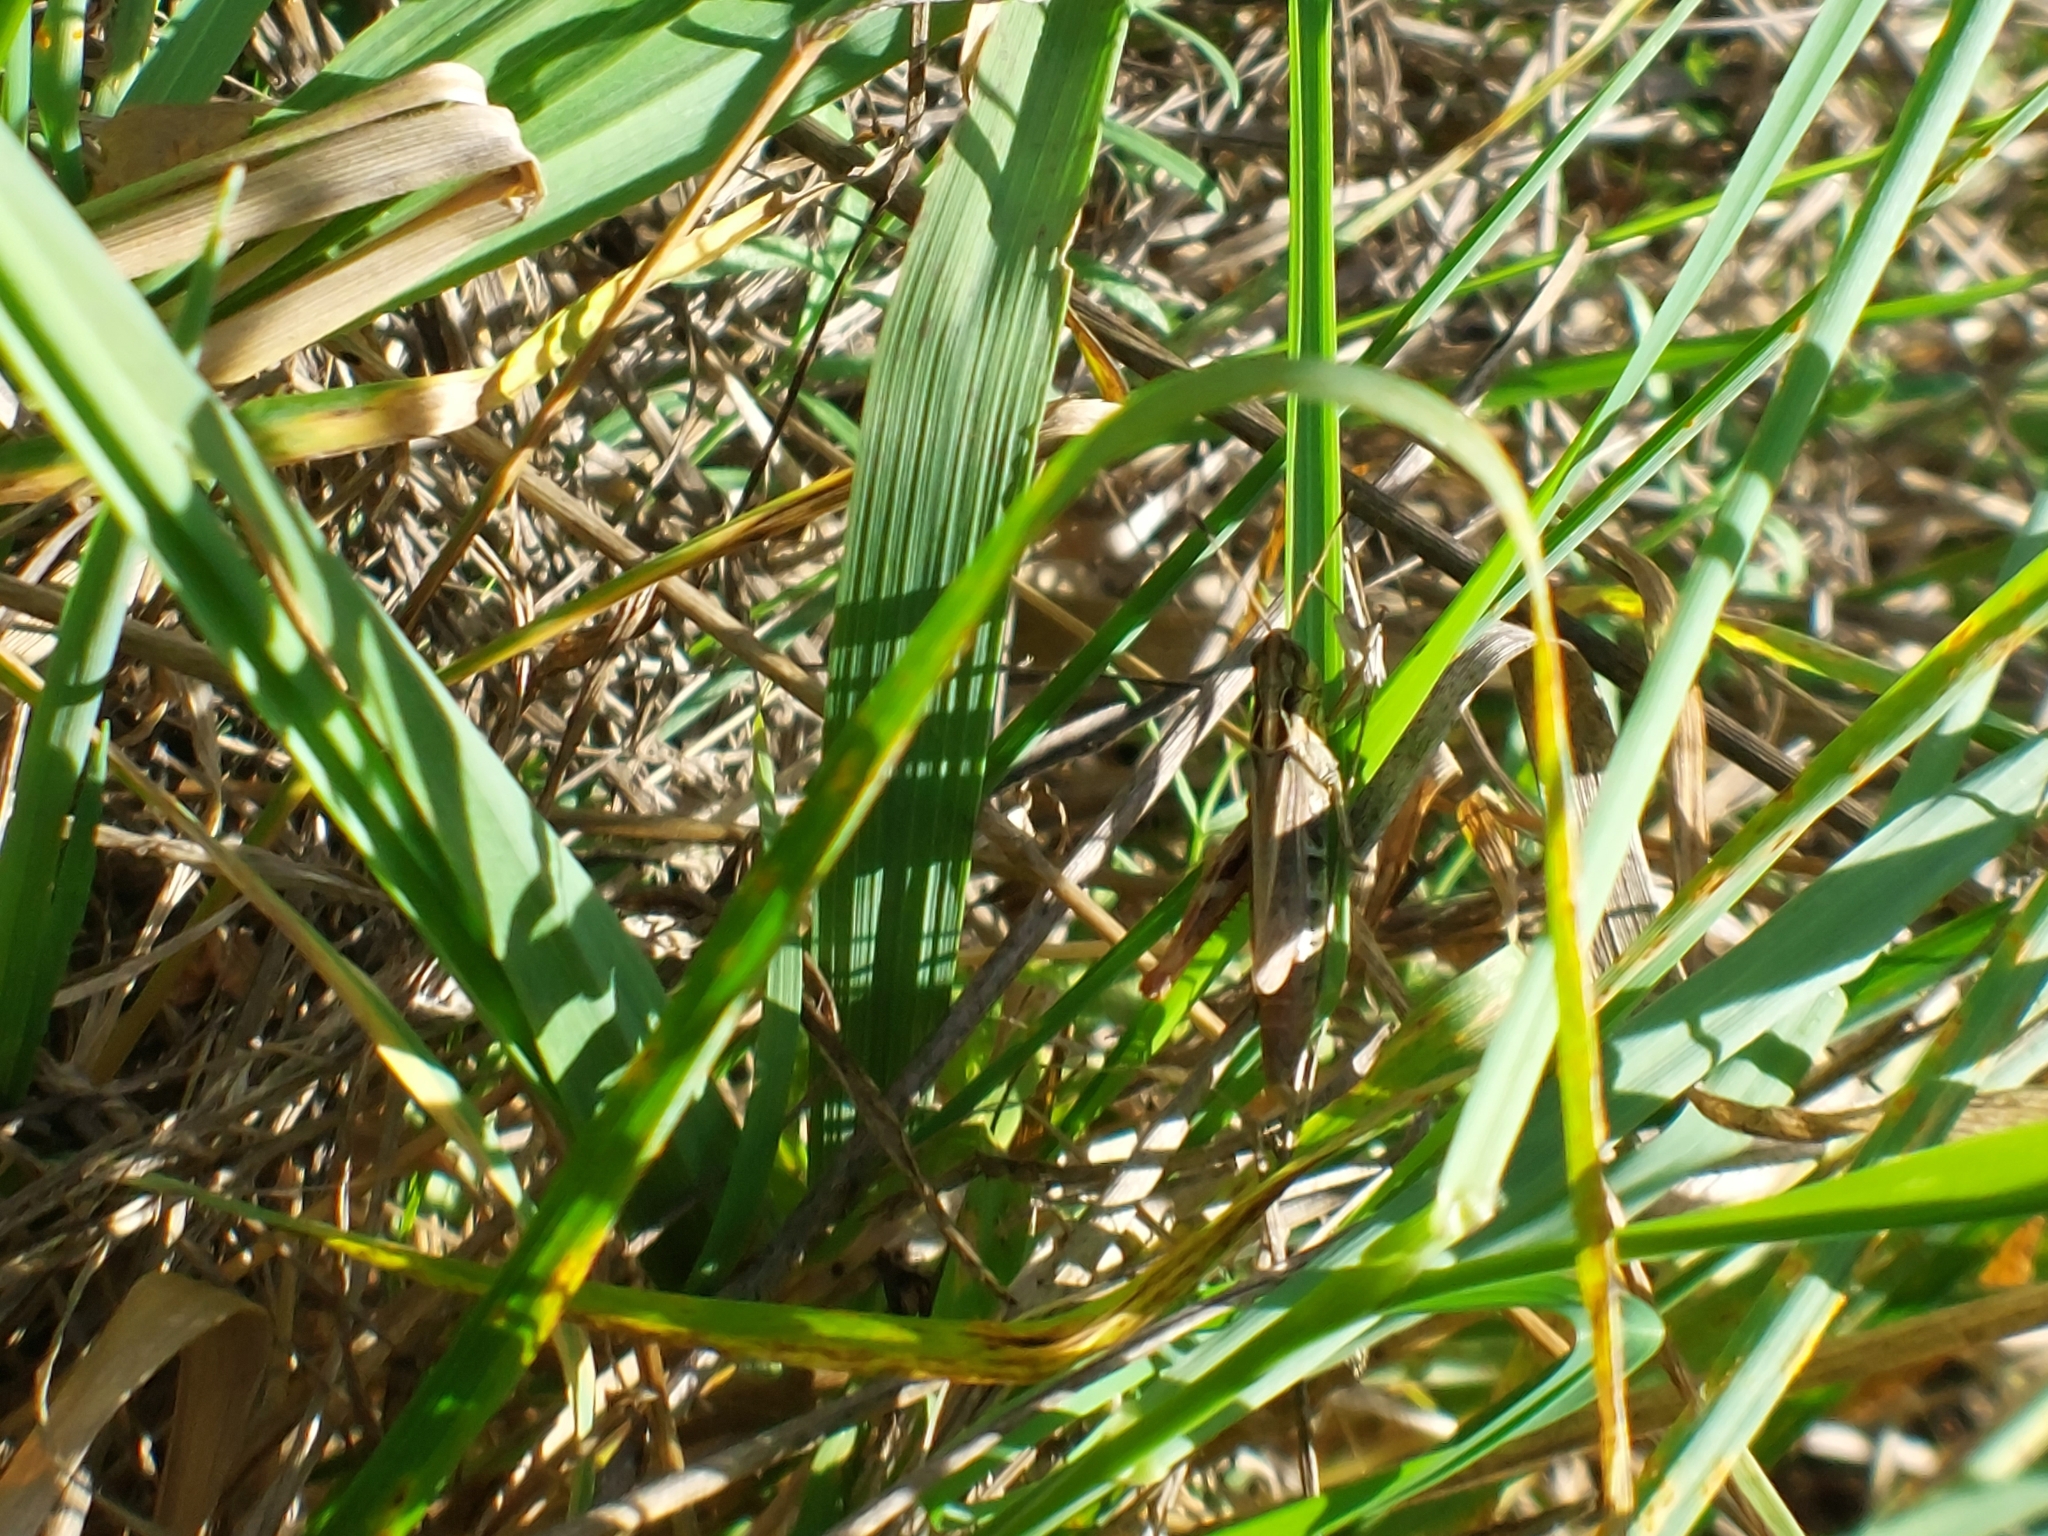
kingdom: Animalia
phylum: Arthropoda
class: Insecta
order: Orthoptera
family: Acrididae
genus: Gomphocerippus
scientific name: Gomphocerippus rufus
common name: Rufous grasshopper
